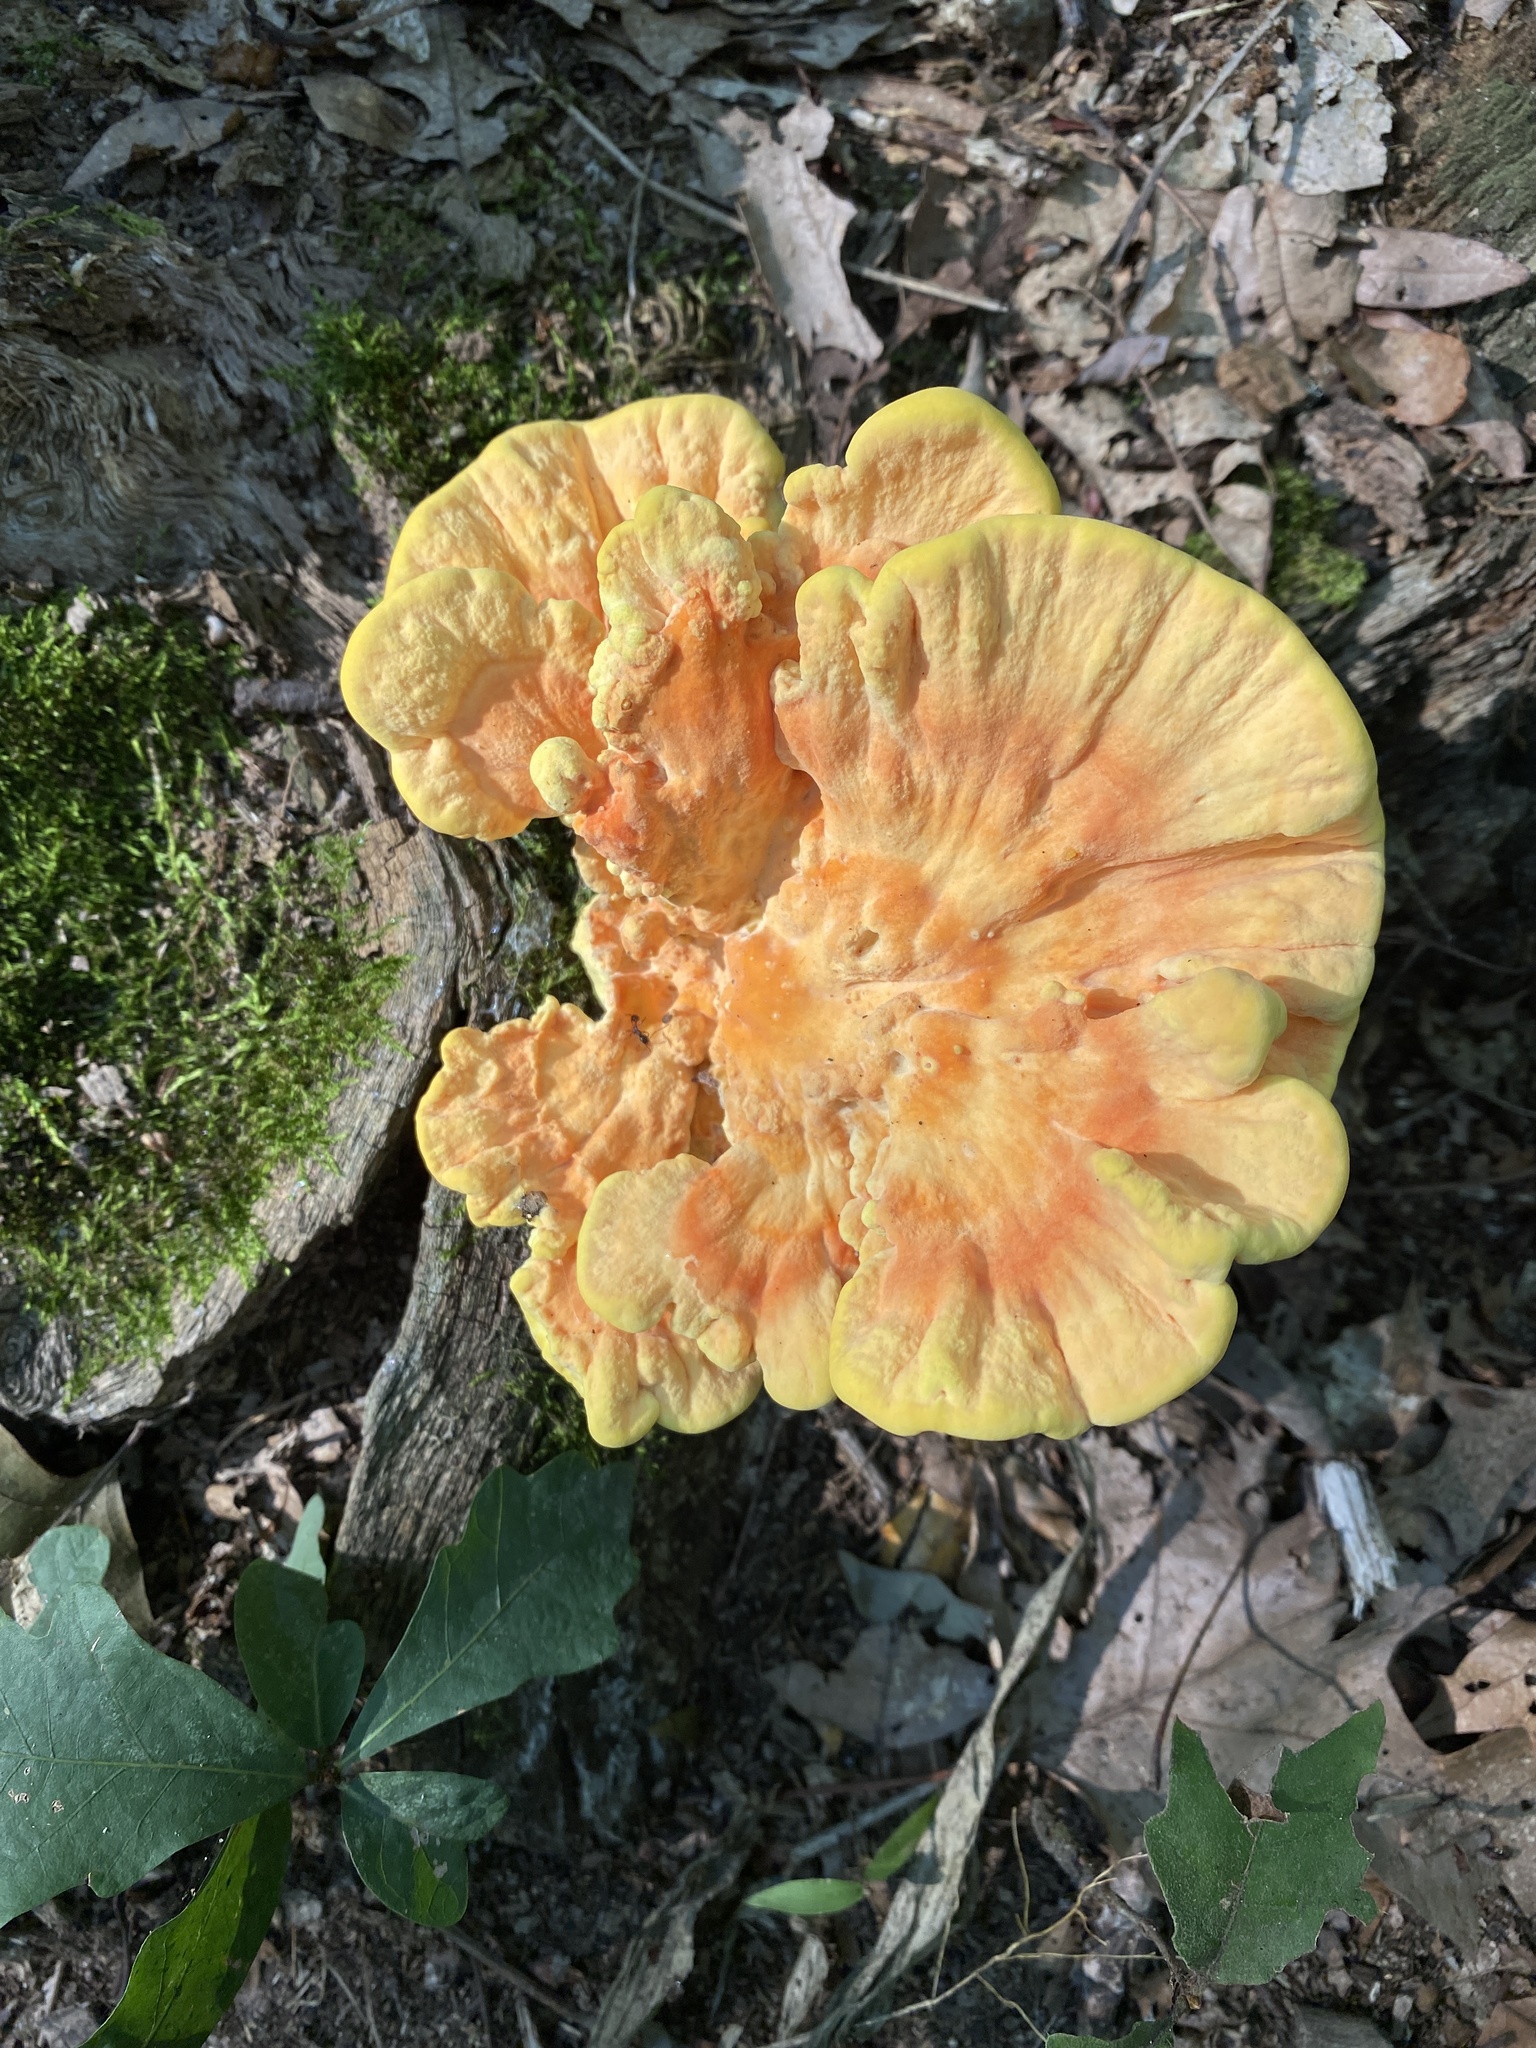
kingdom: Fungi
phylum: Basidiomycota
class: Agaricomycetes
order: Polyporales
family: Laetiporaceae
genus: Laetiporus
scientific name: Laetiporus sulphureus
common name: Chicken of the woods
